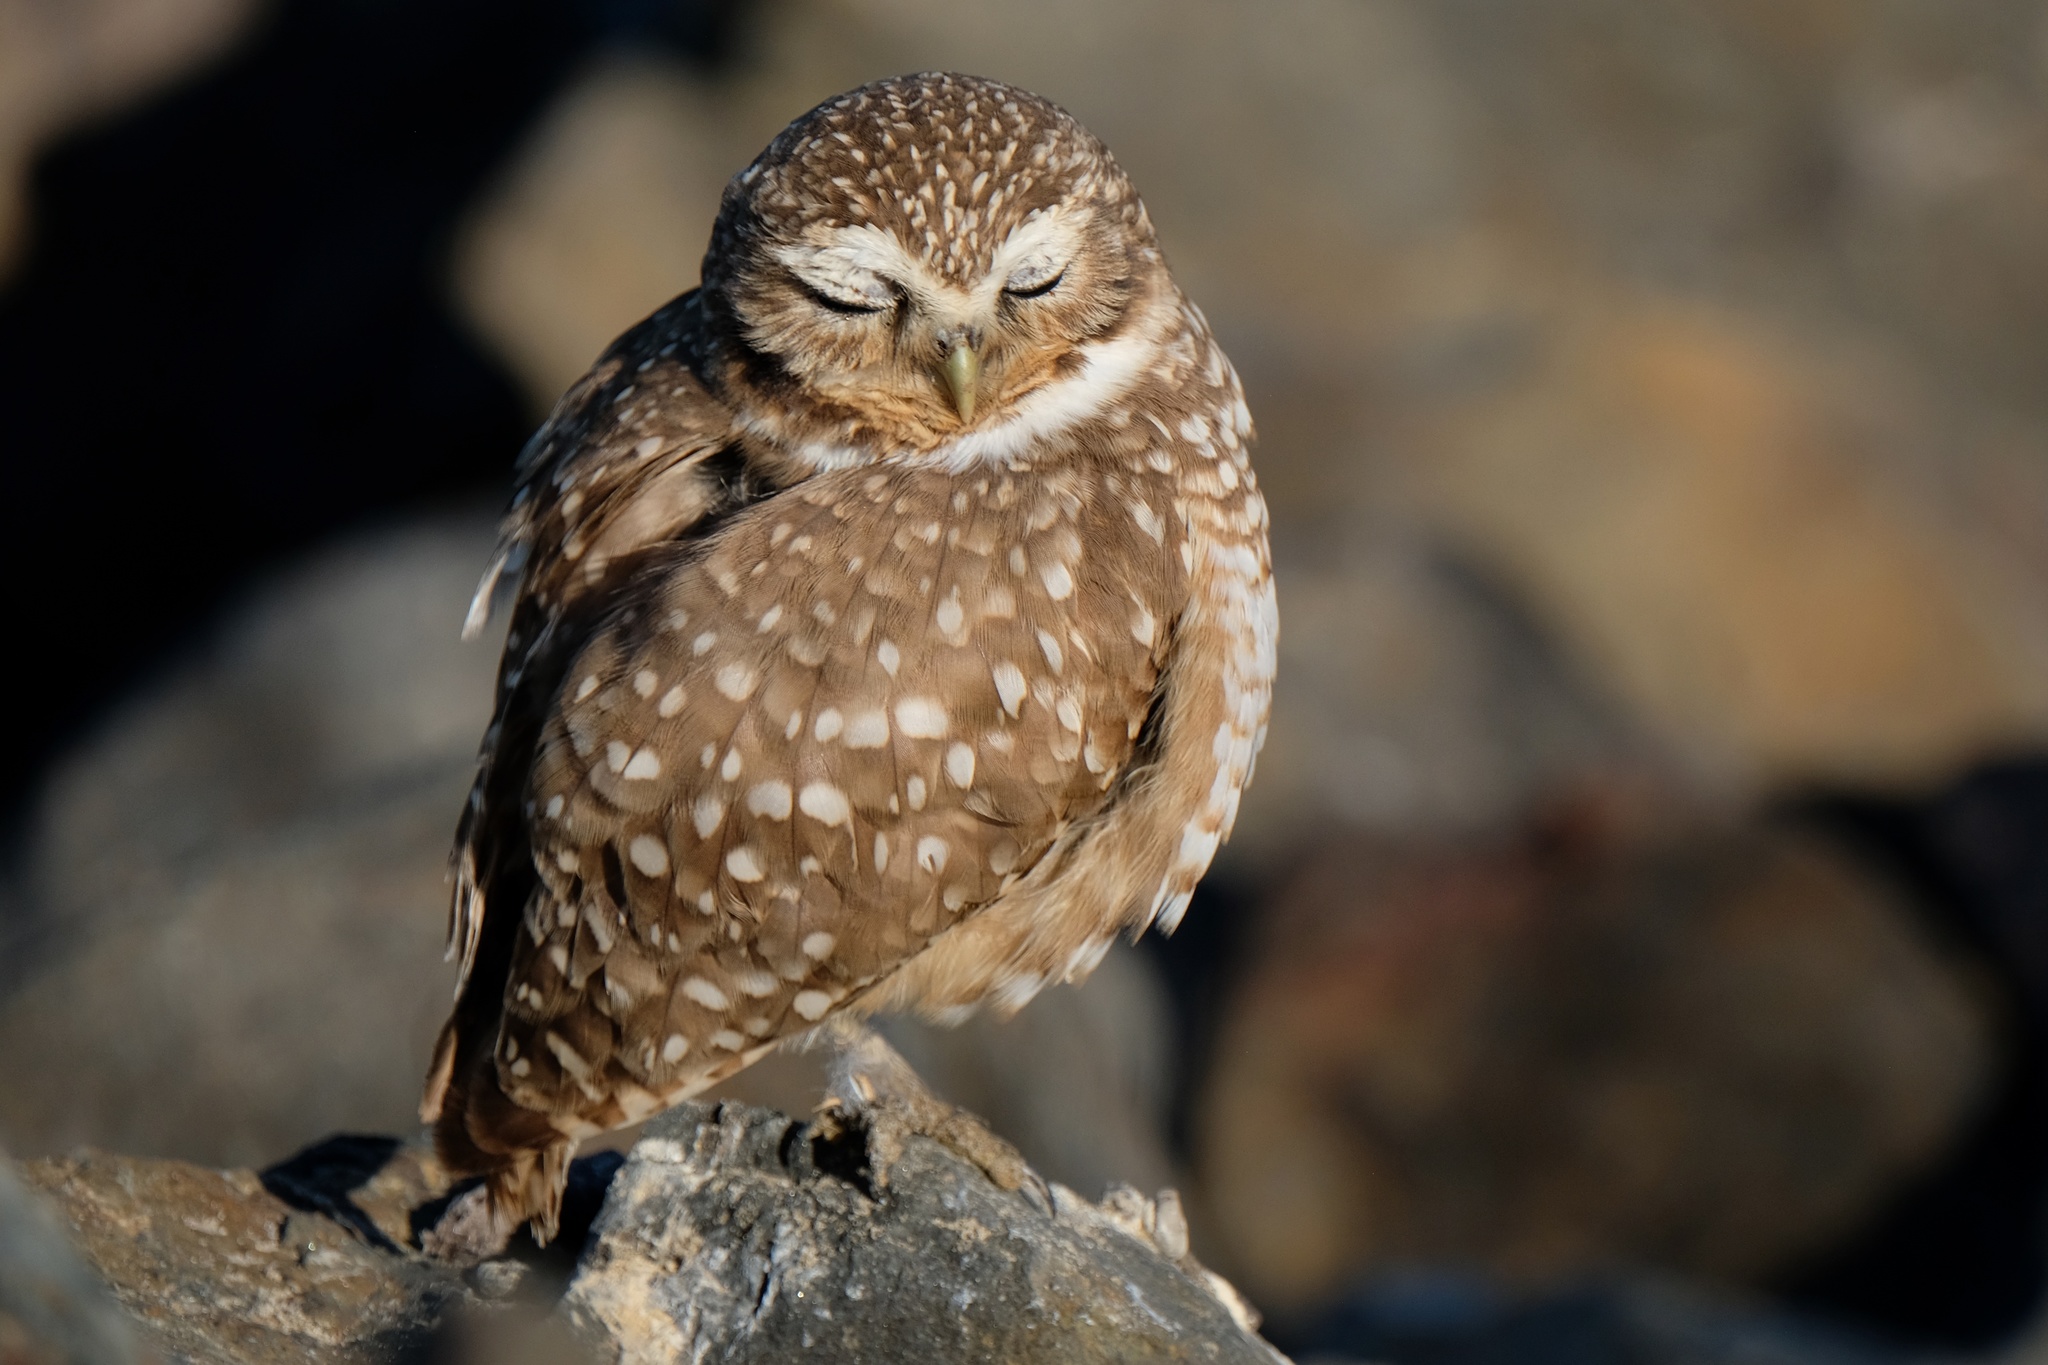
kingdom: Animalia
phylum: Chordata
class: Aves
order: Strigiformes
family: Strigidae
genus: Athene
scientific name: Athene cunicularia
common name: Burrowing owl
